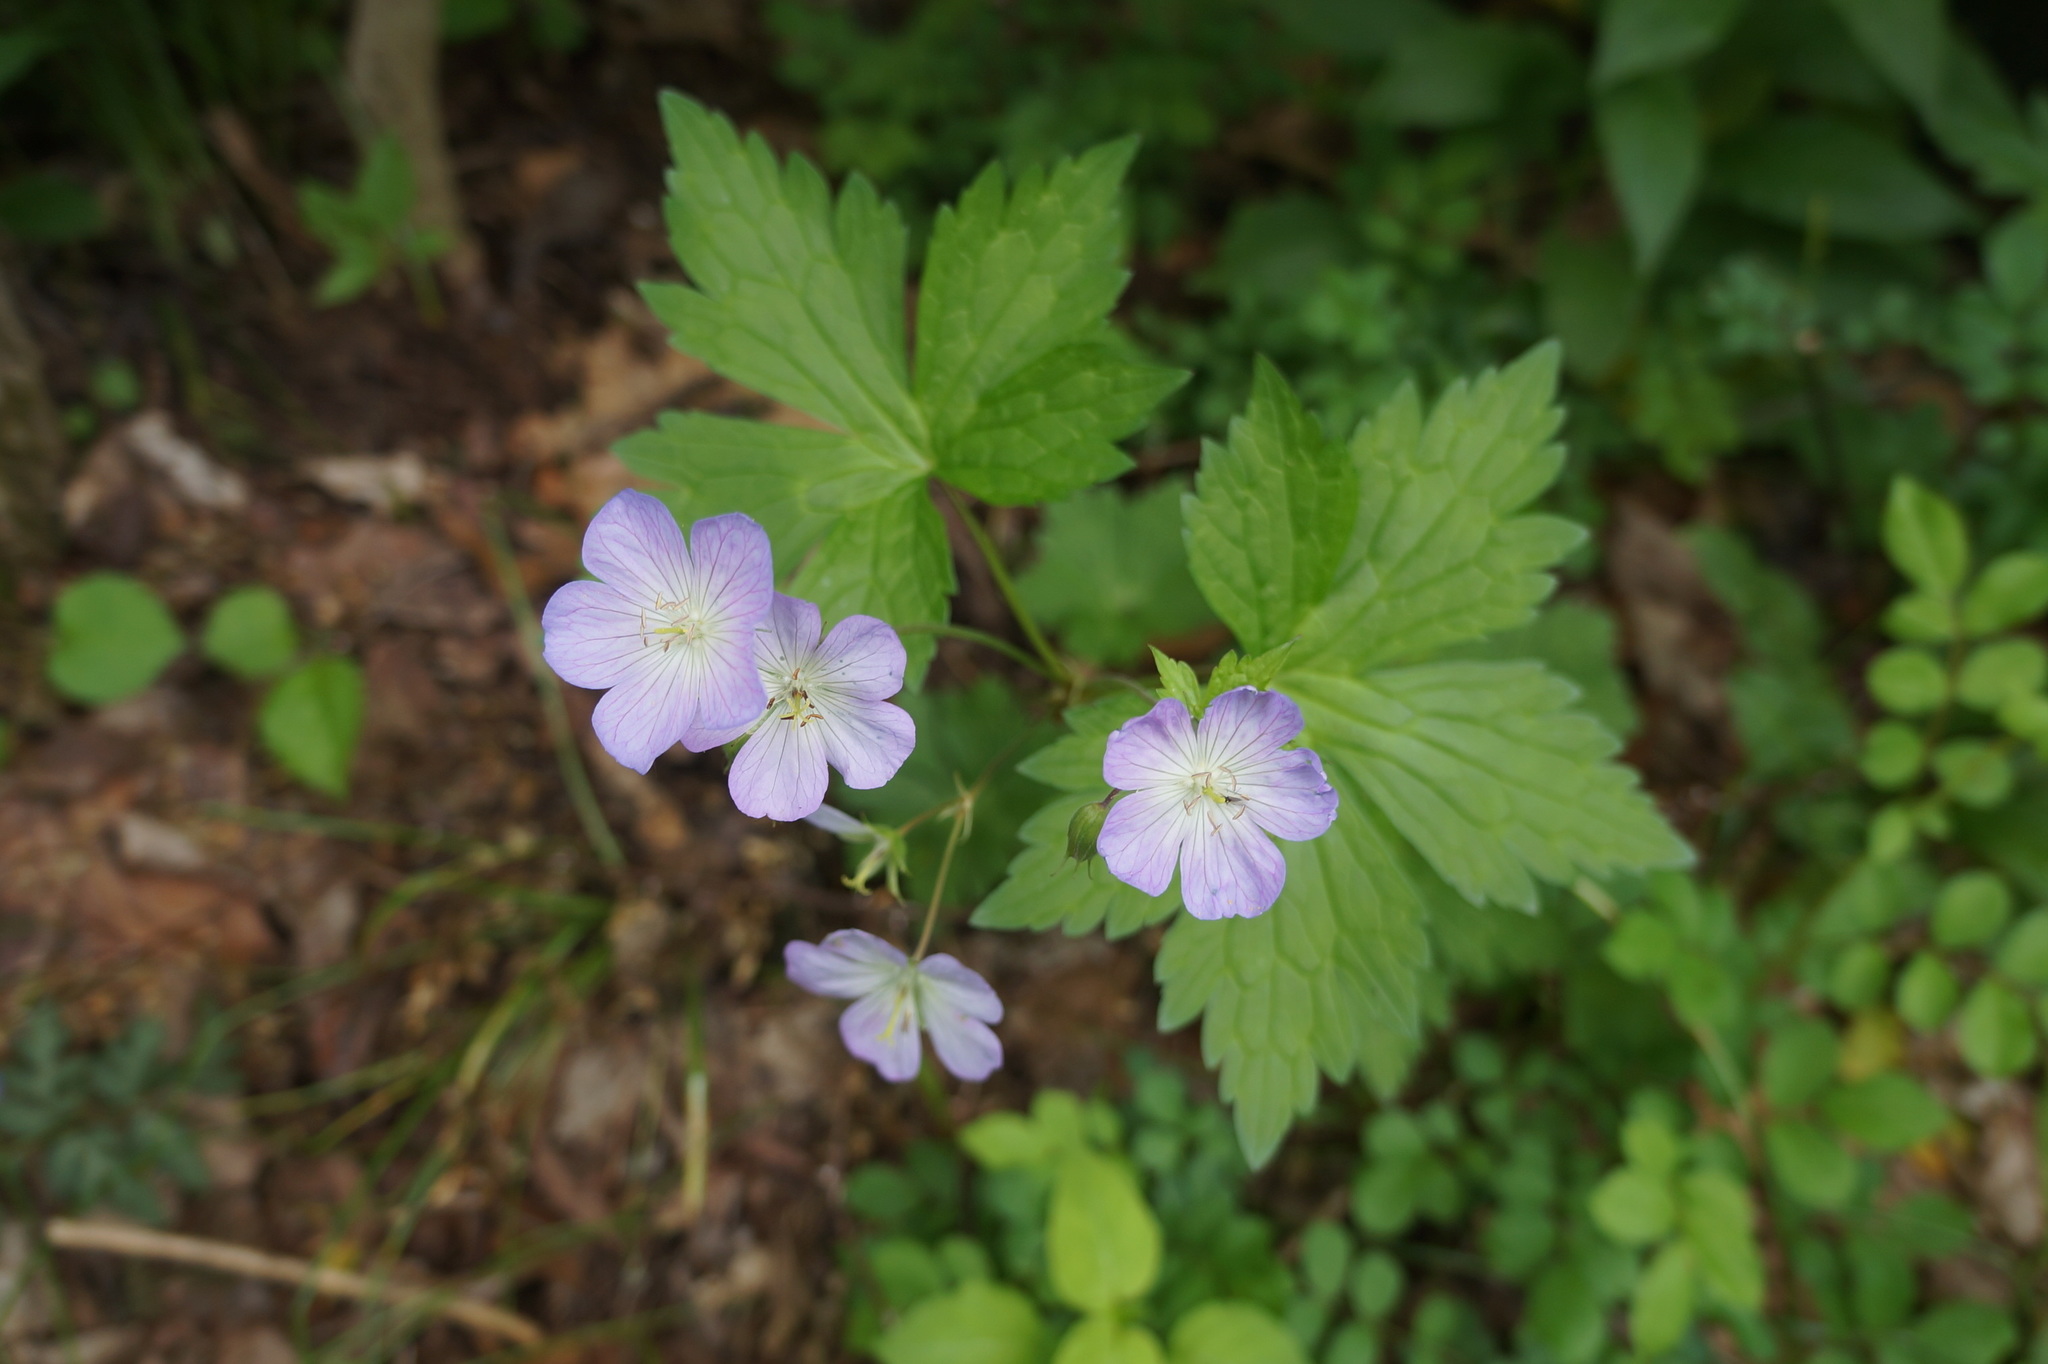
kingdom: Plantae
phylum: Tracheophyta
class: Magnoliopsida
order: Geraniales
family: Geraniaceae
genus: Geranium
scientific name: Geranium maculatum
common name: Spotted geranium
